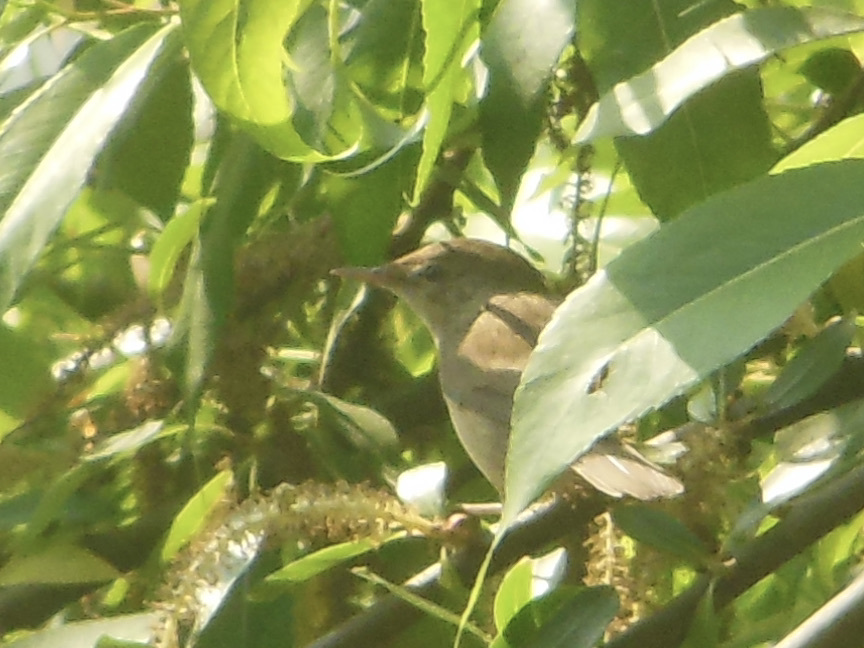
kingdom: Animalia
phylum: Chordata
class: Aves
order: Passeriformes
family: Acrocephalidae
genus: Acrocephalus
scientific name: Acrocephalus dumetorum
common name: Blyth's reed warbler
